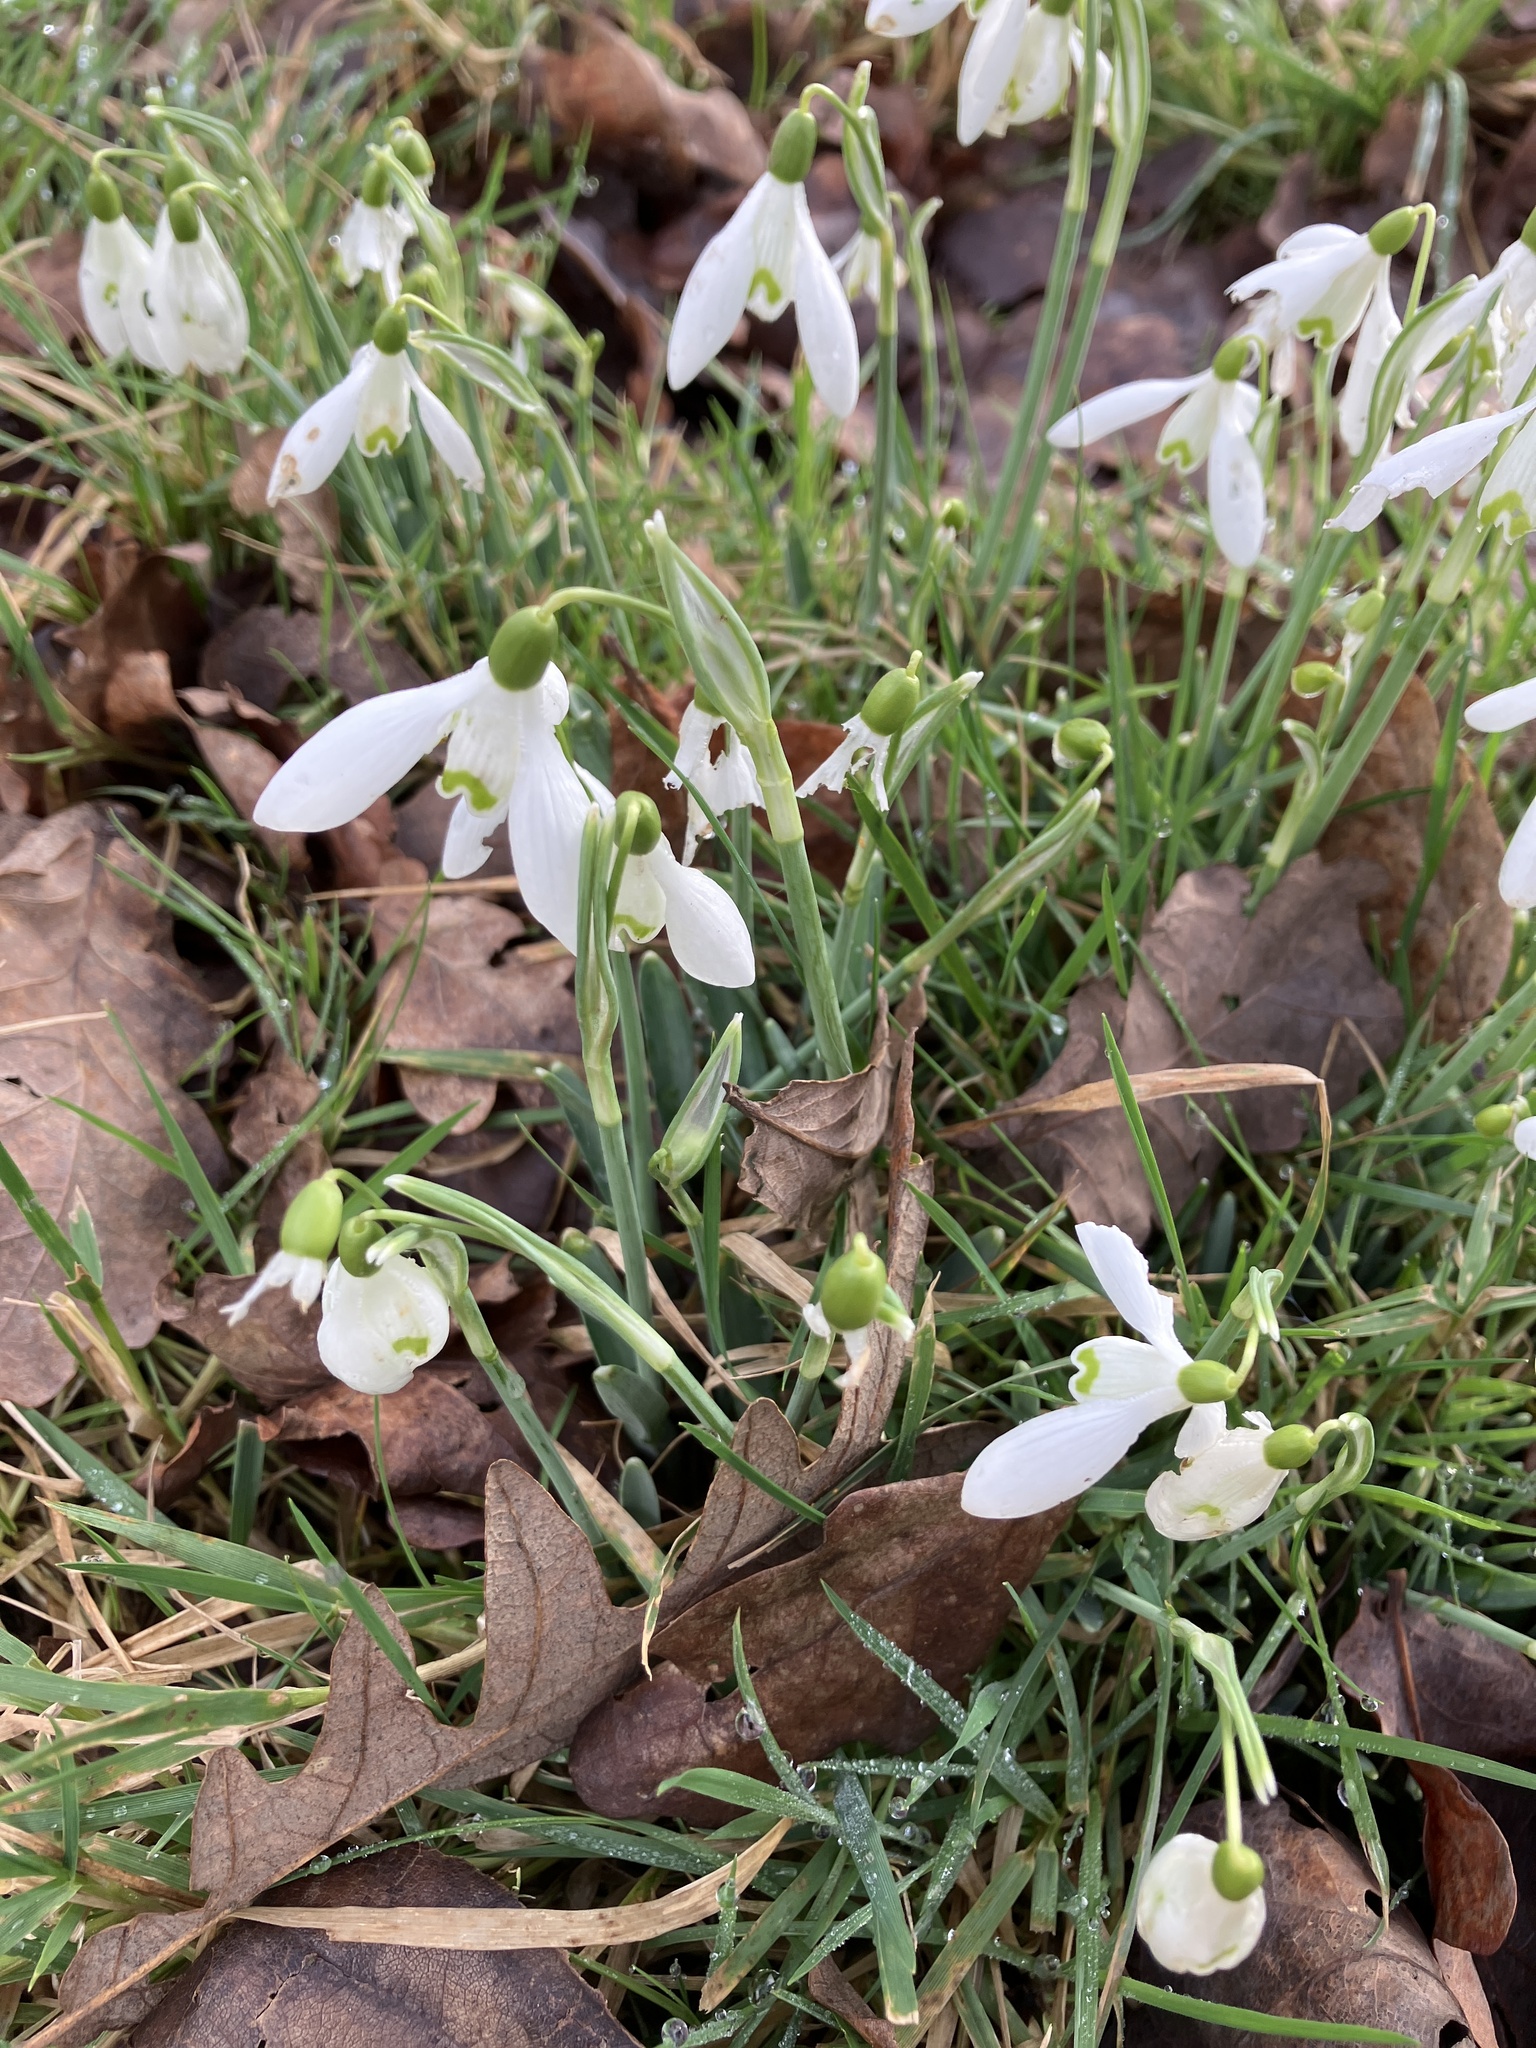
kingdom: Plantae
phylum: Tracheophyta
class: Liliopsida
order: Asparagales
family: Amaryllidaceae
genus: Galanthus
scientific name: Galanthus nivalis
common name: Snowdrop
